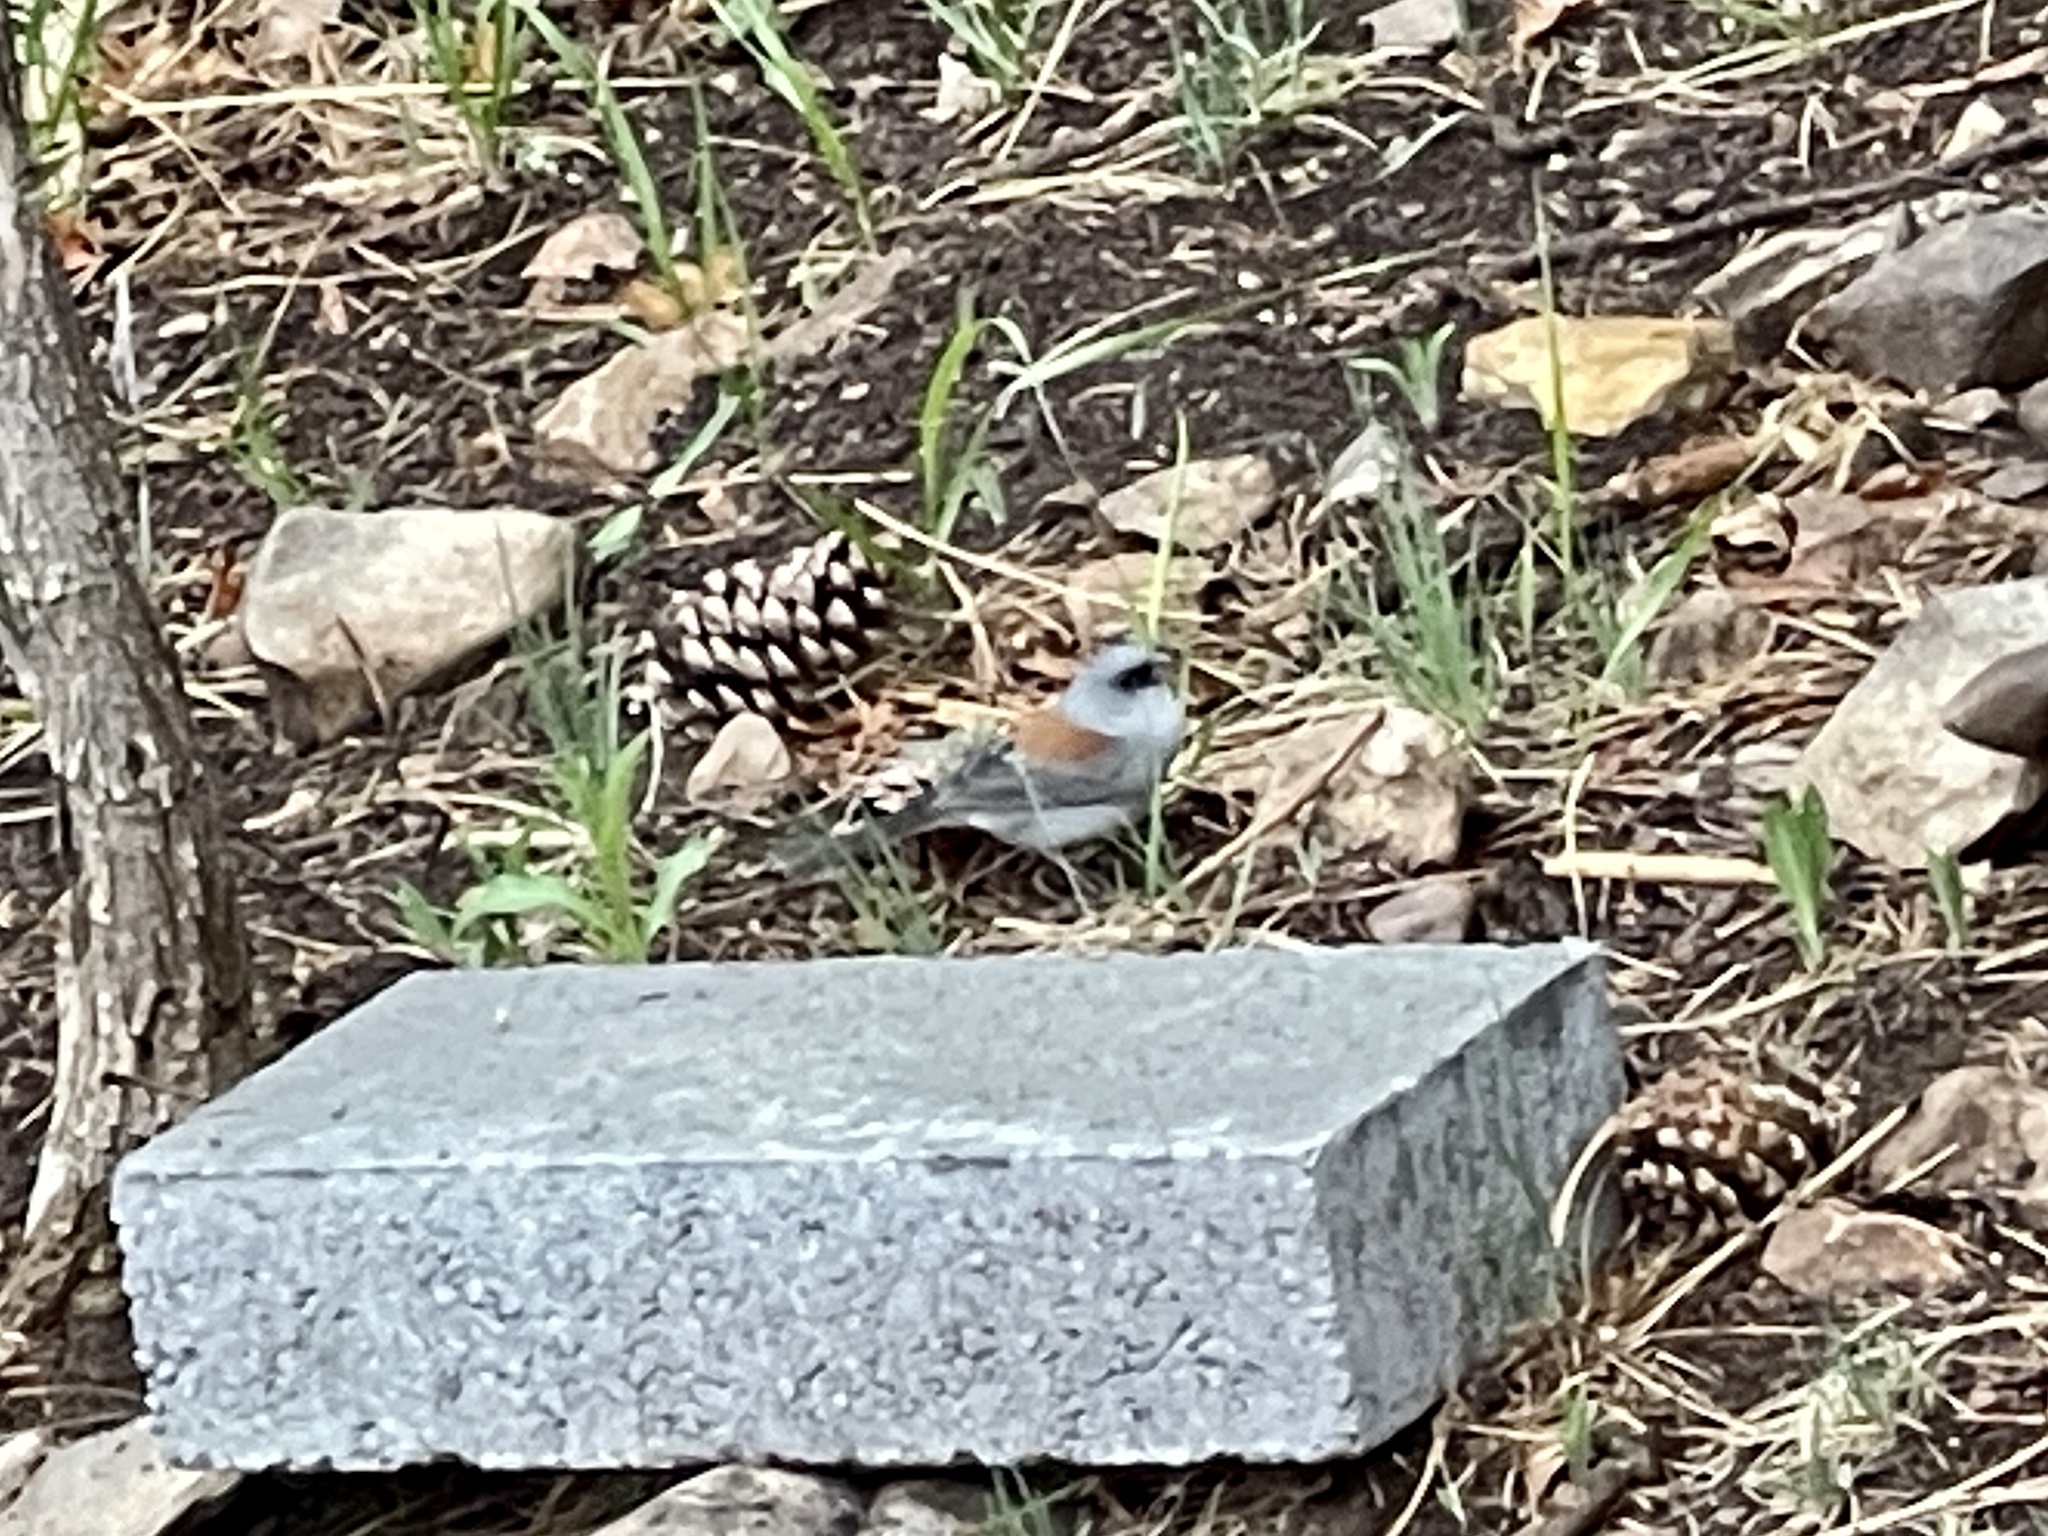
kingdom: Animalia
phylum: Chordata
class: Aves
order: Passeriformes
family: Passerellidae
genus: Junco
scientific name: Junco hyemalis
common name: Dark-eyed junco
